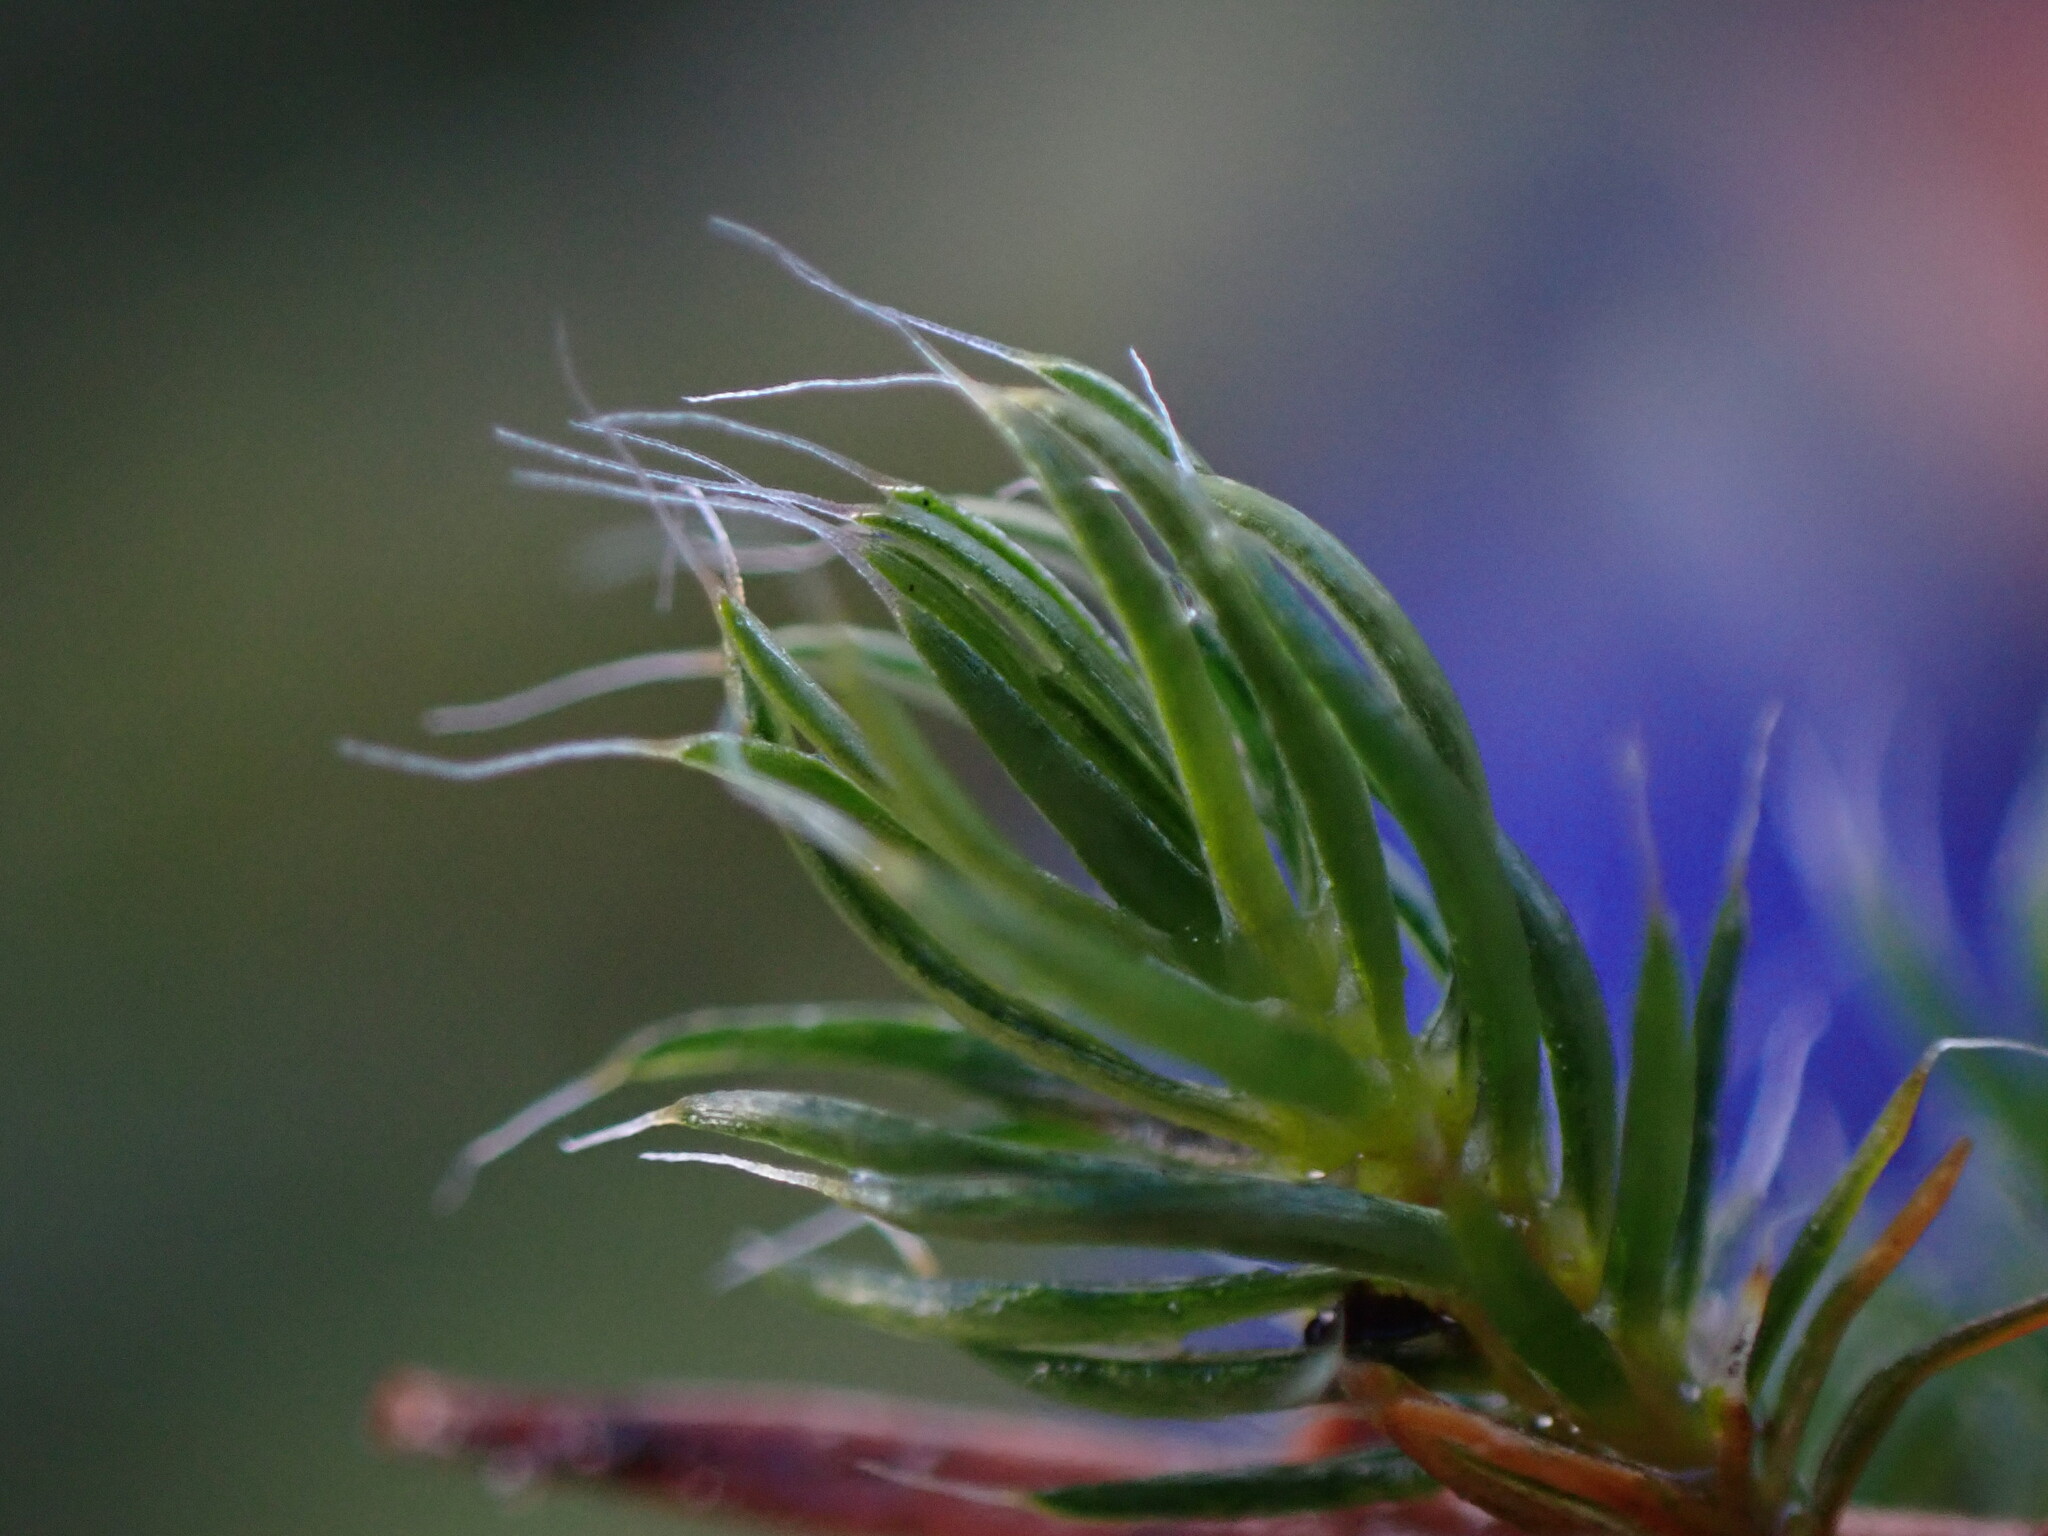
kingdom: Plantae
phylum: Bryophyta
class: Polytrichopsida
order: Polytrichales
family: Polytrichaceae
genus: Polytrichum
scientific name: Polytrichum piliferum
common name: Bristly haircap
